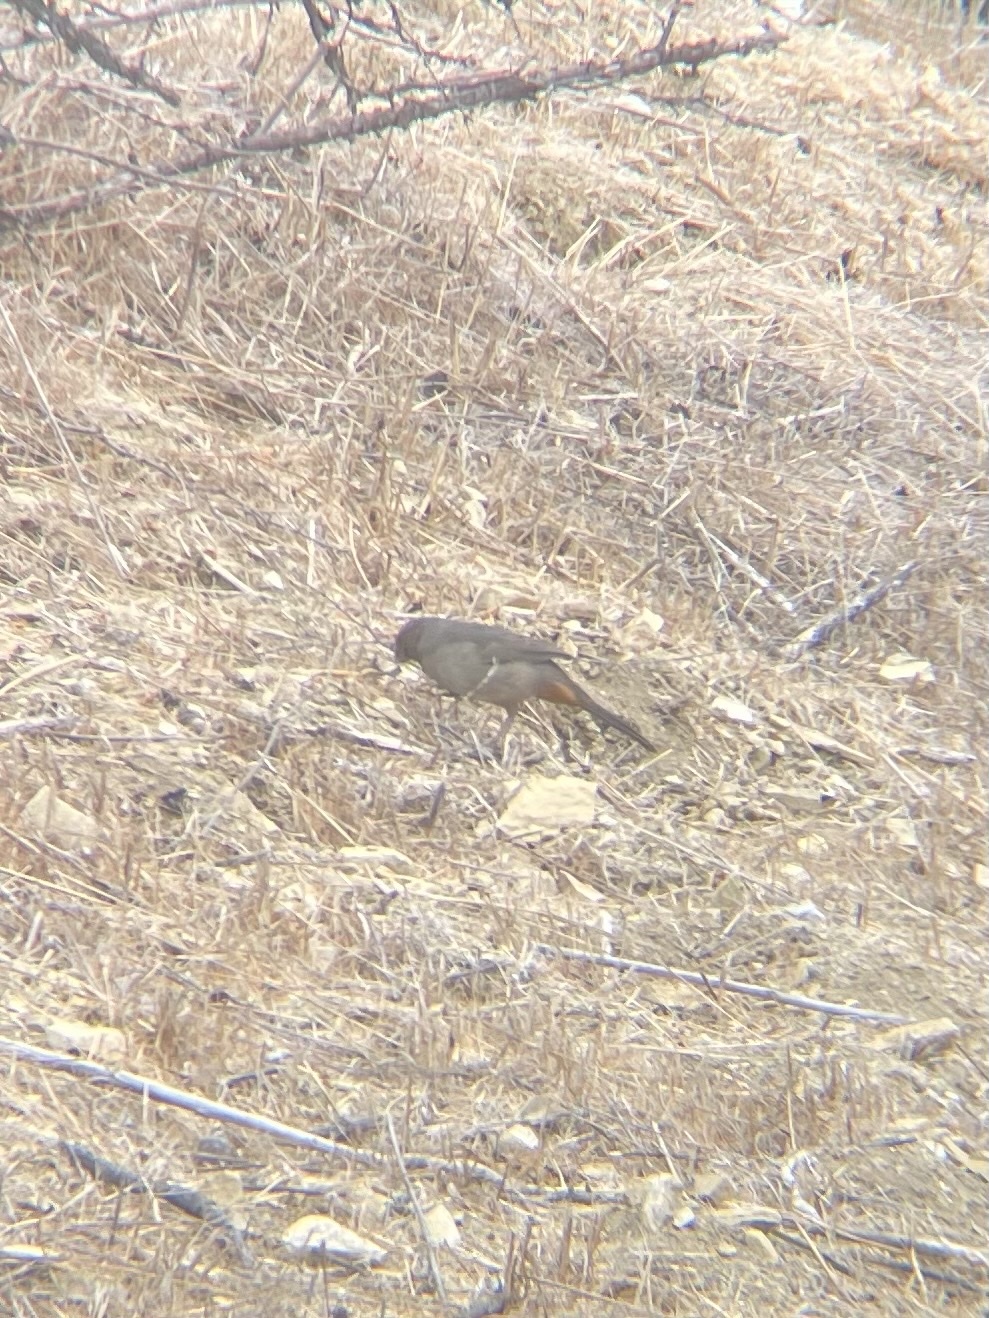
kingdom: Animalia
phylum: Chordata
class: Aves
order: Passeriformes
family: Passerellidae
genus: Melozone
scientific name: Melozone crissalis
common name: California towhee
